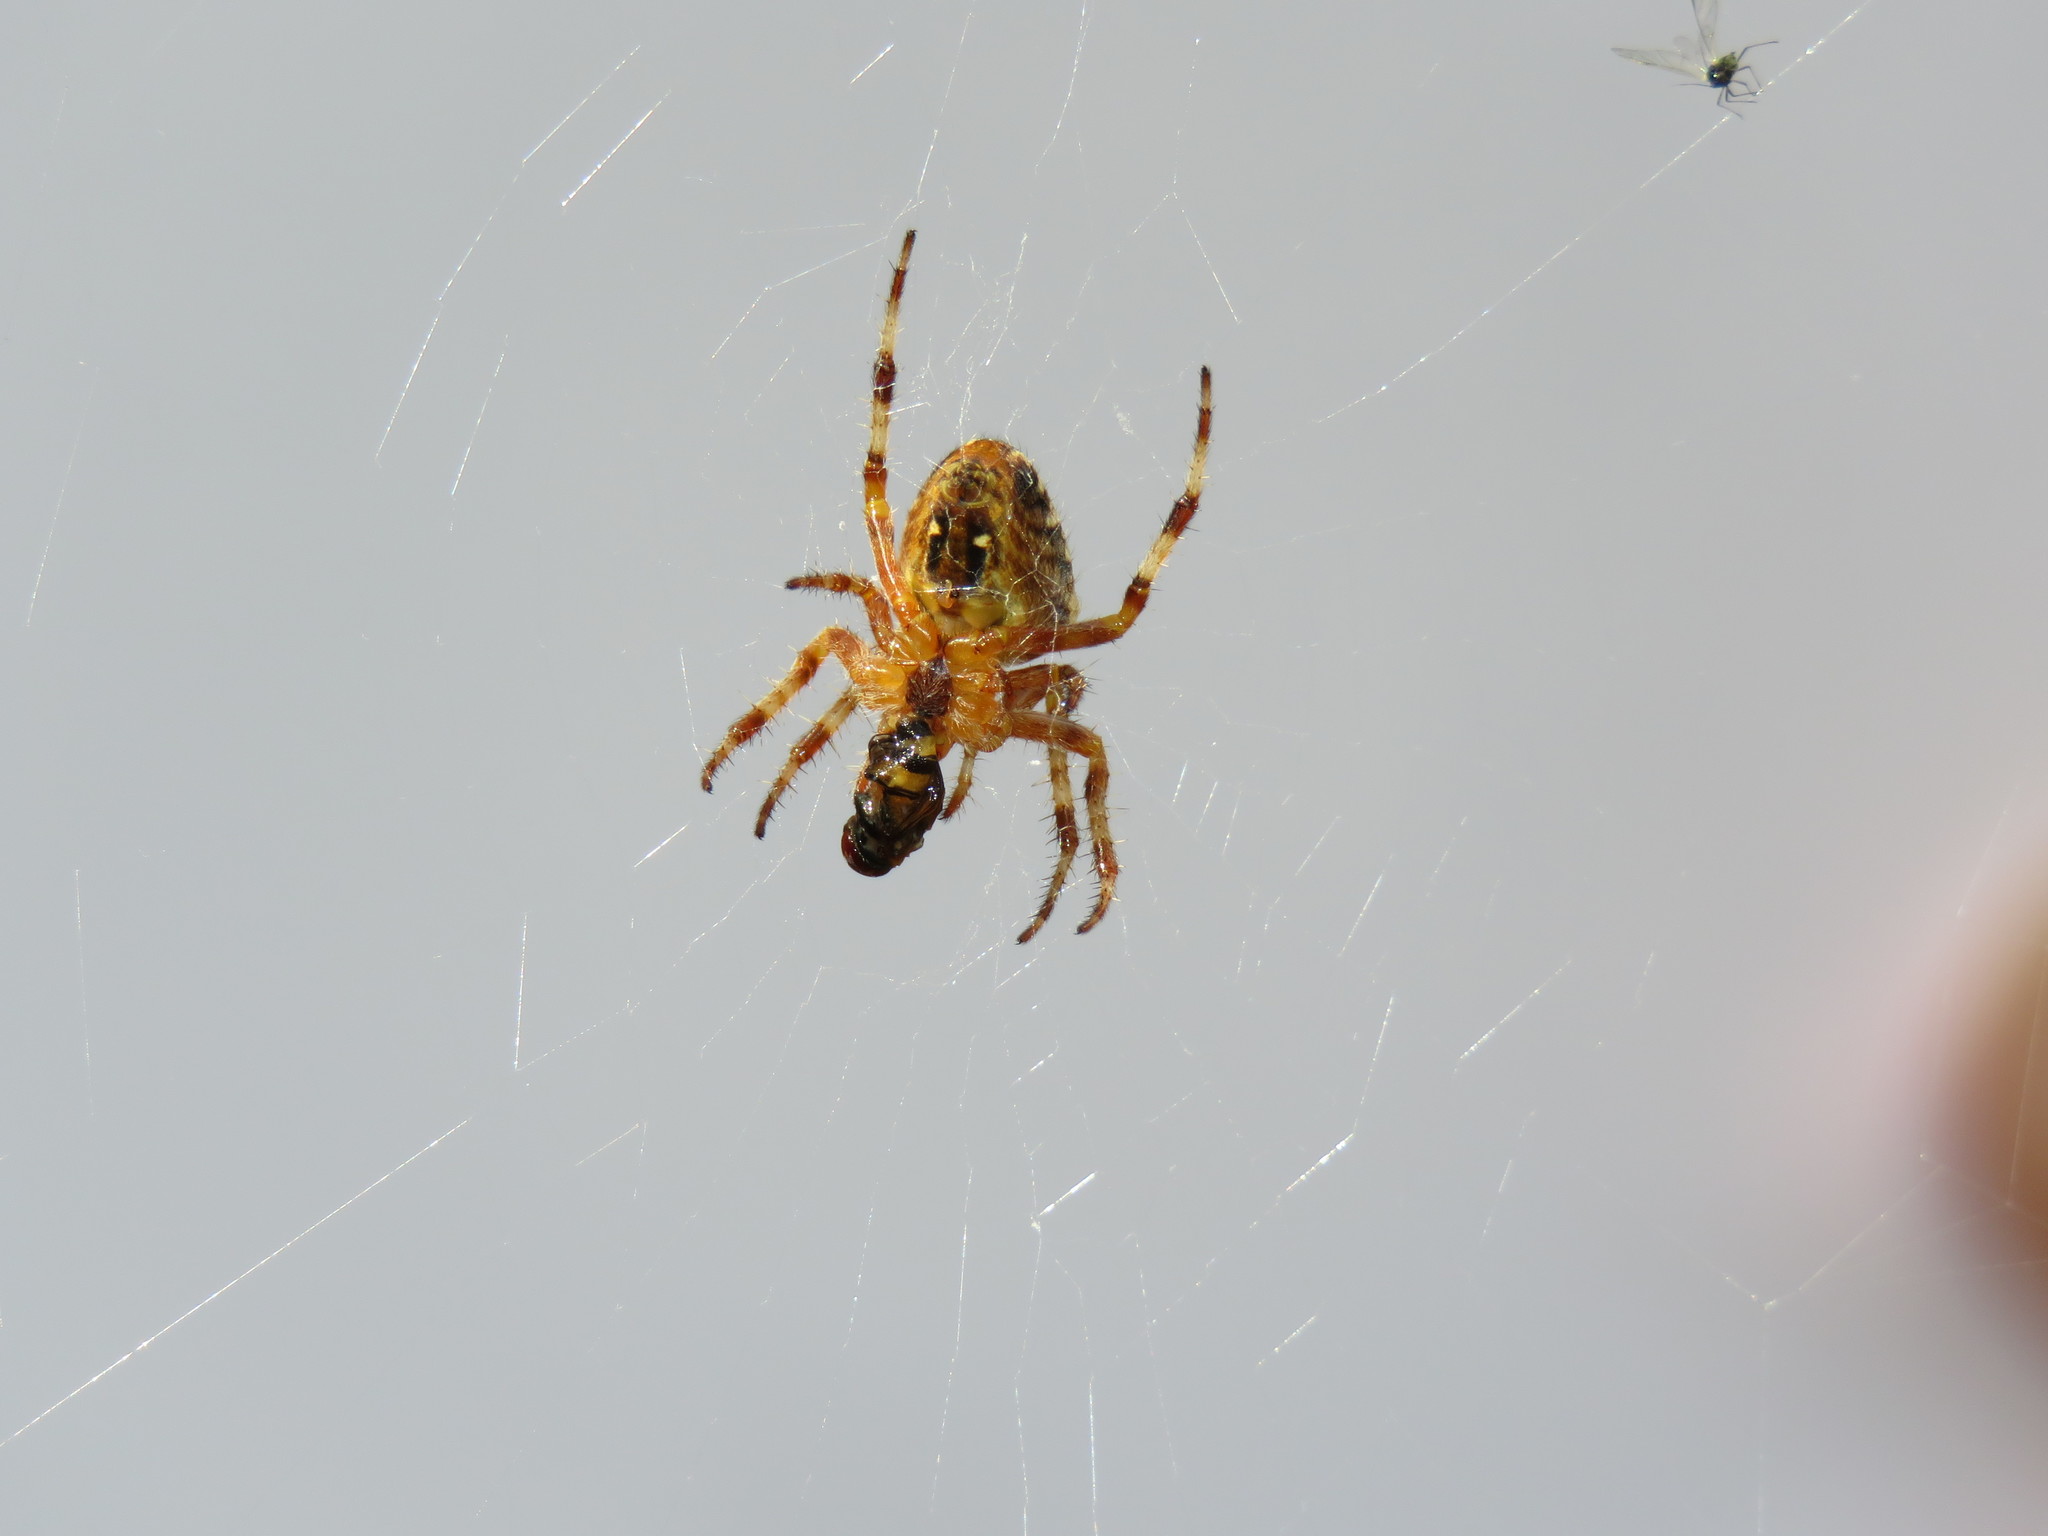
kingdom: Animalia
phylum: Arthropoda
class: Arachnida
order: Araneae
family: Araneidae
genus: Araneus
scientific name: Araneus diadematus
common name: Cross orbweaver
